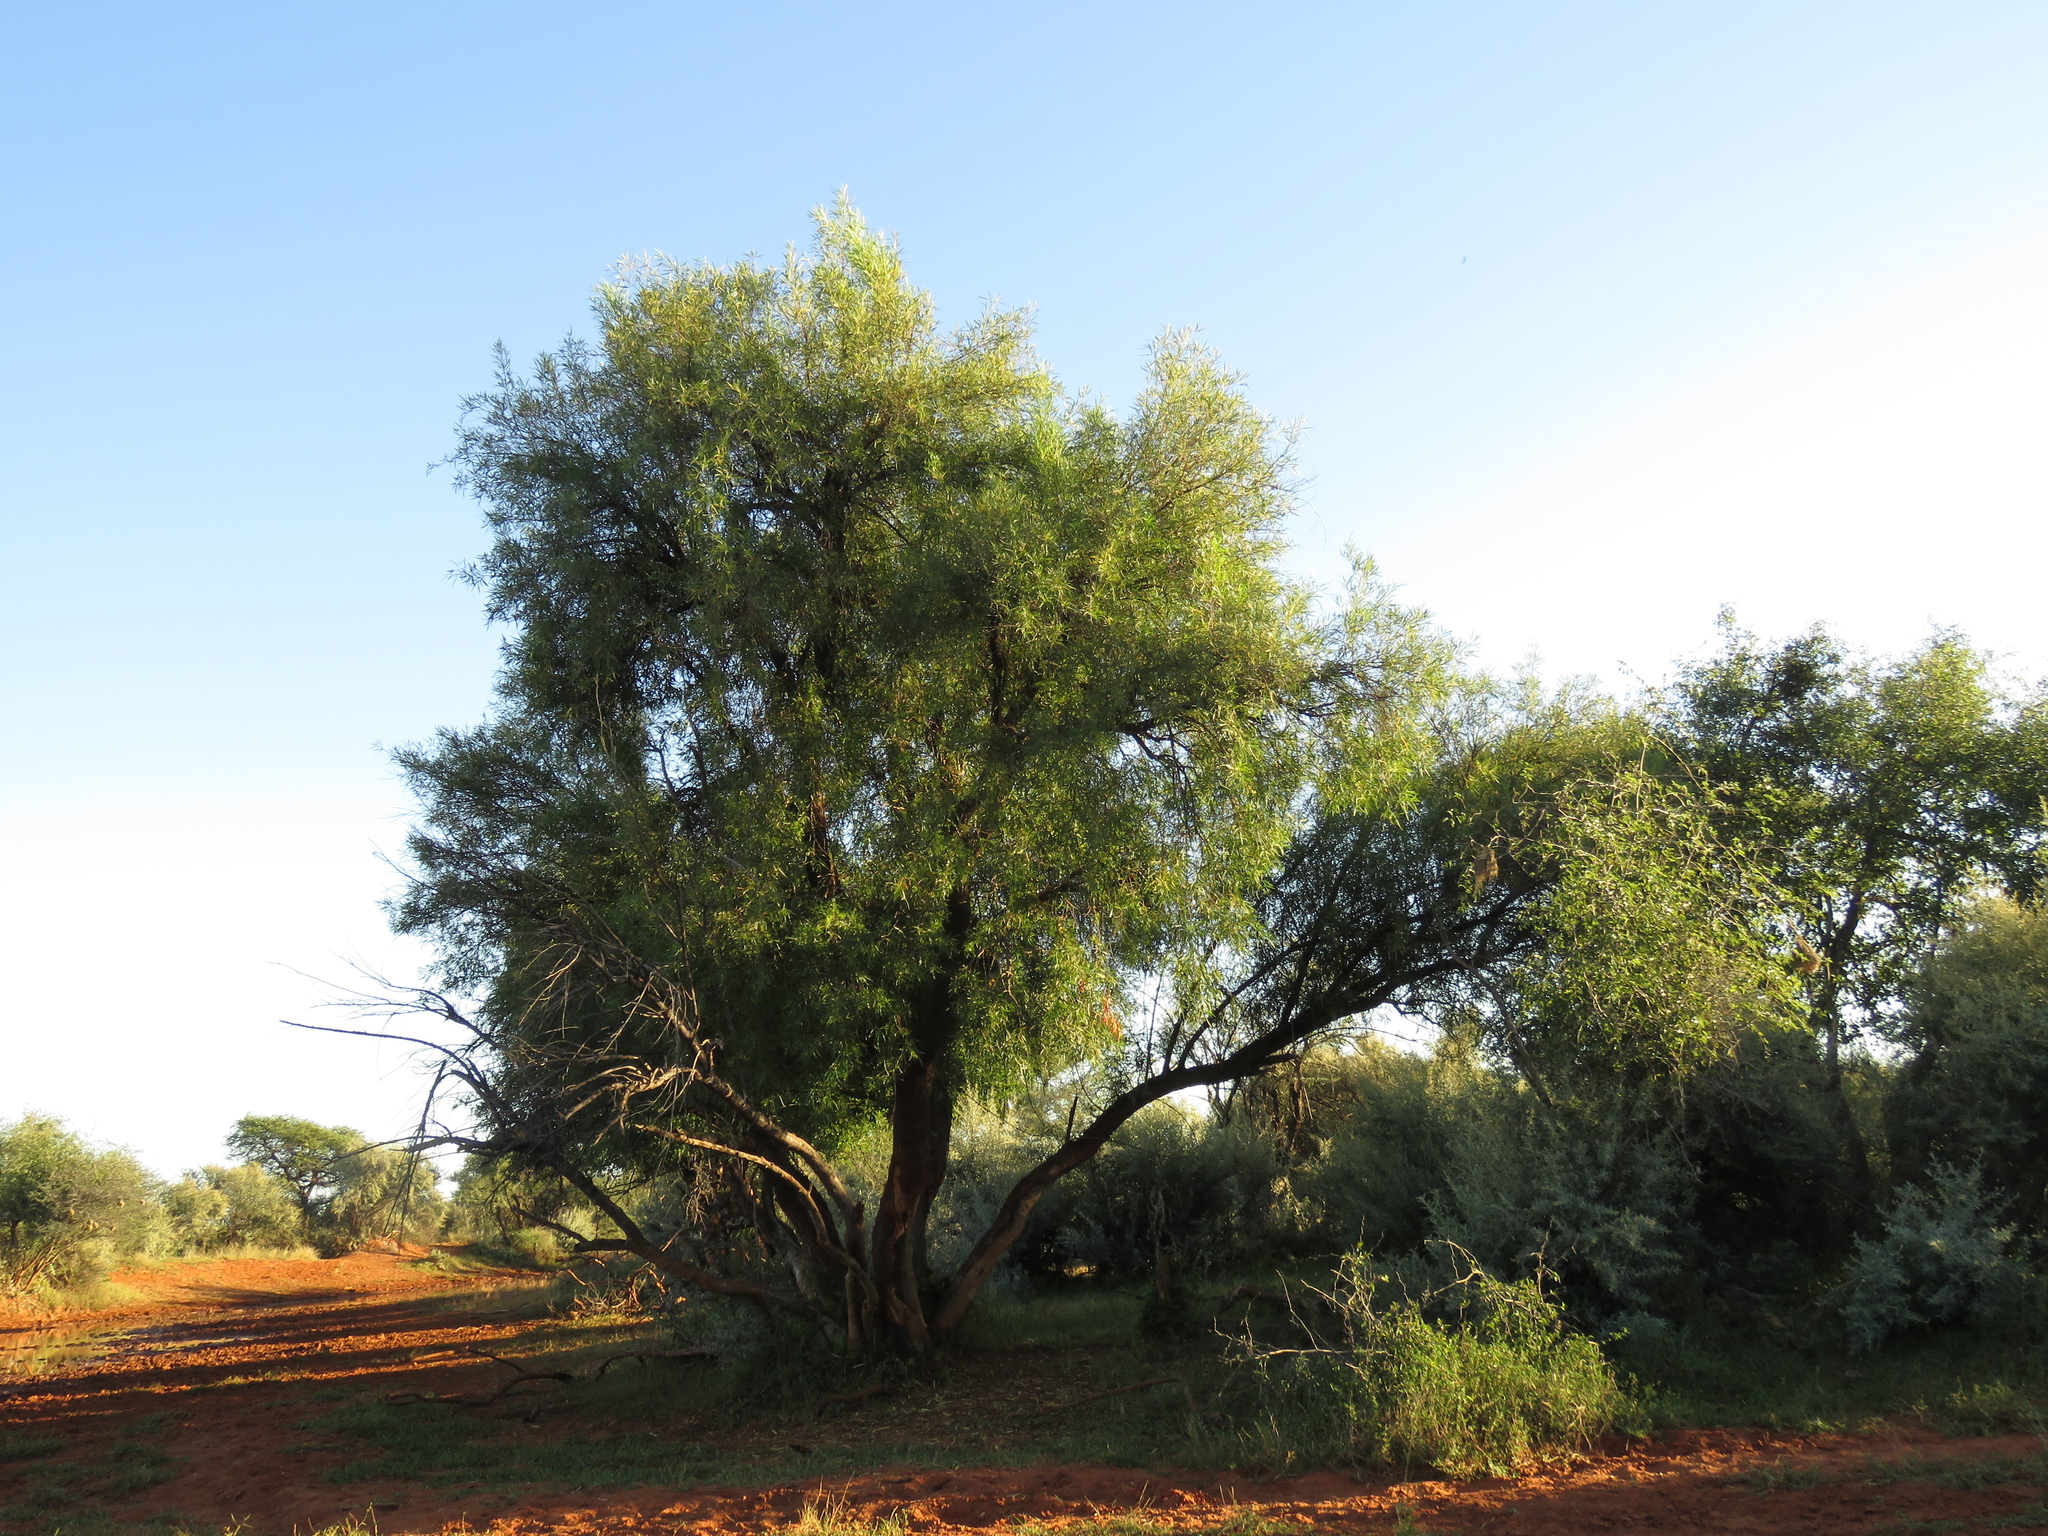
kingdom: Plantae
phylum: Tracheophyta
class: Magnoliopsida
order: Sapindales
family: Anacardiaceae
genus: Searsia
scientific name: Searsia lancea
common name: Cashew
